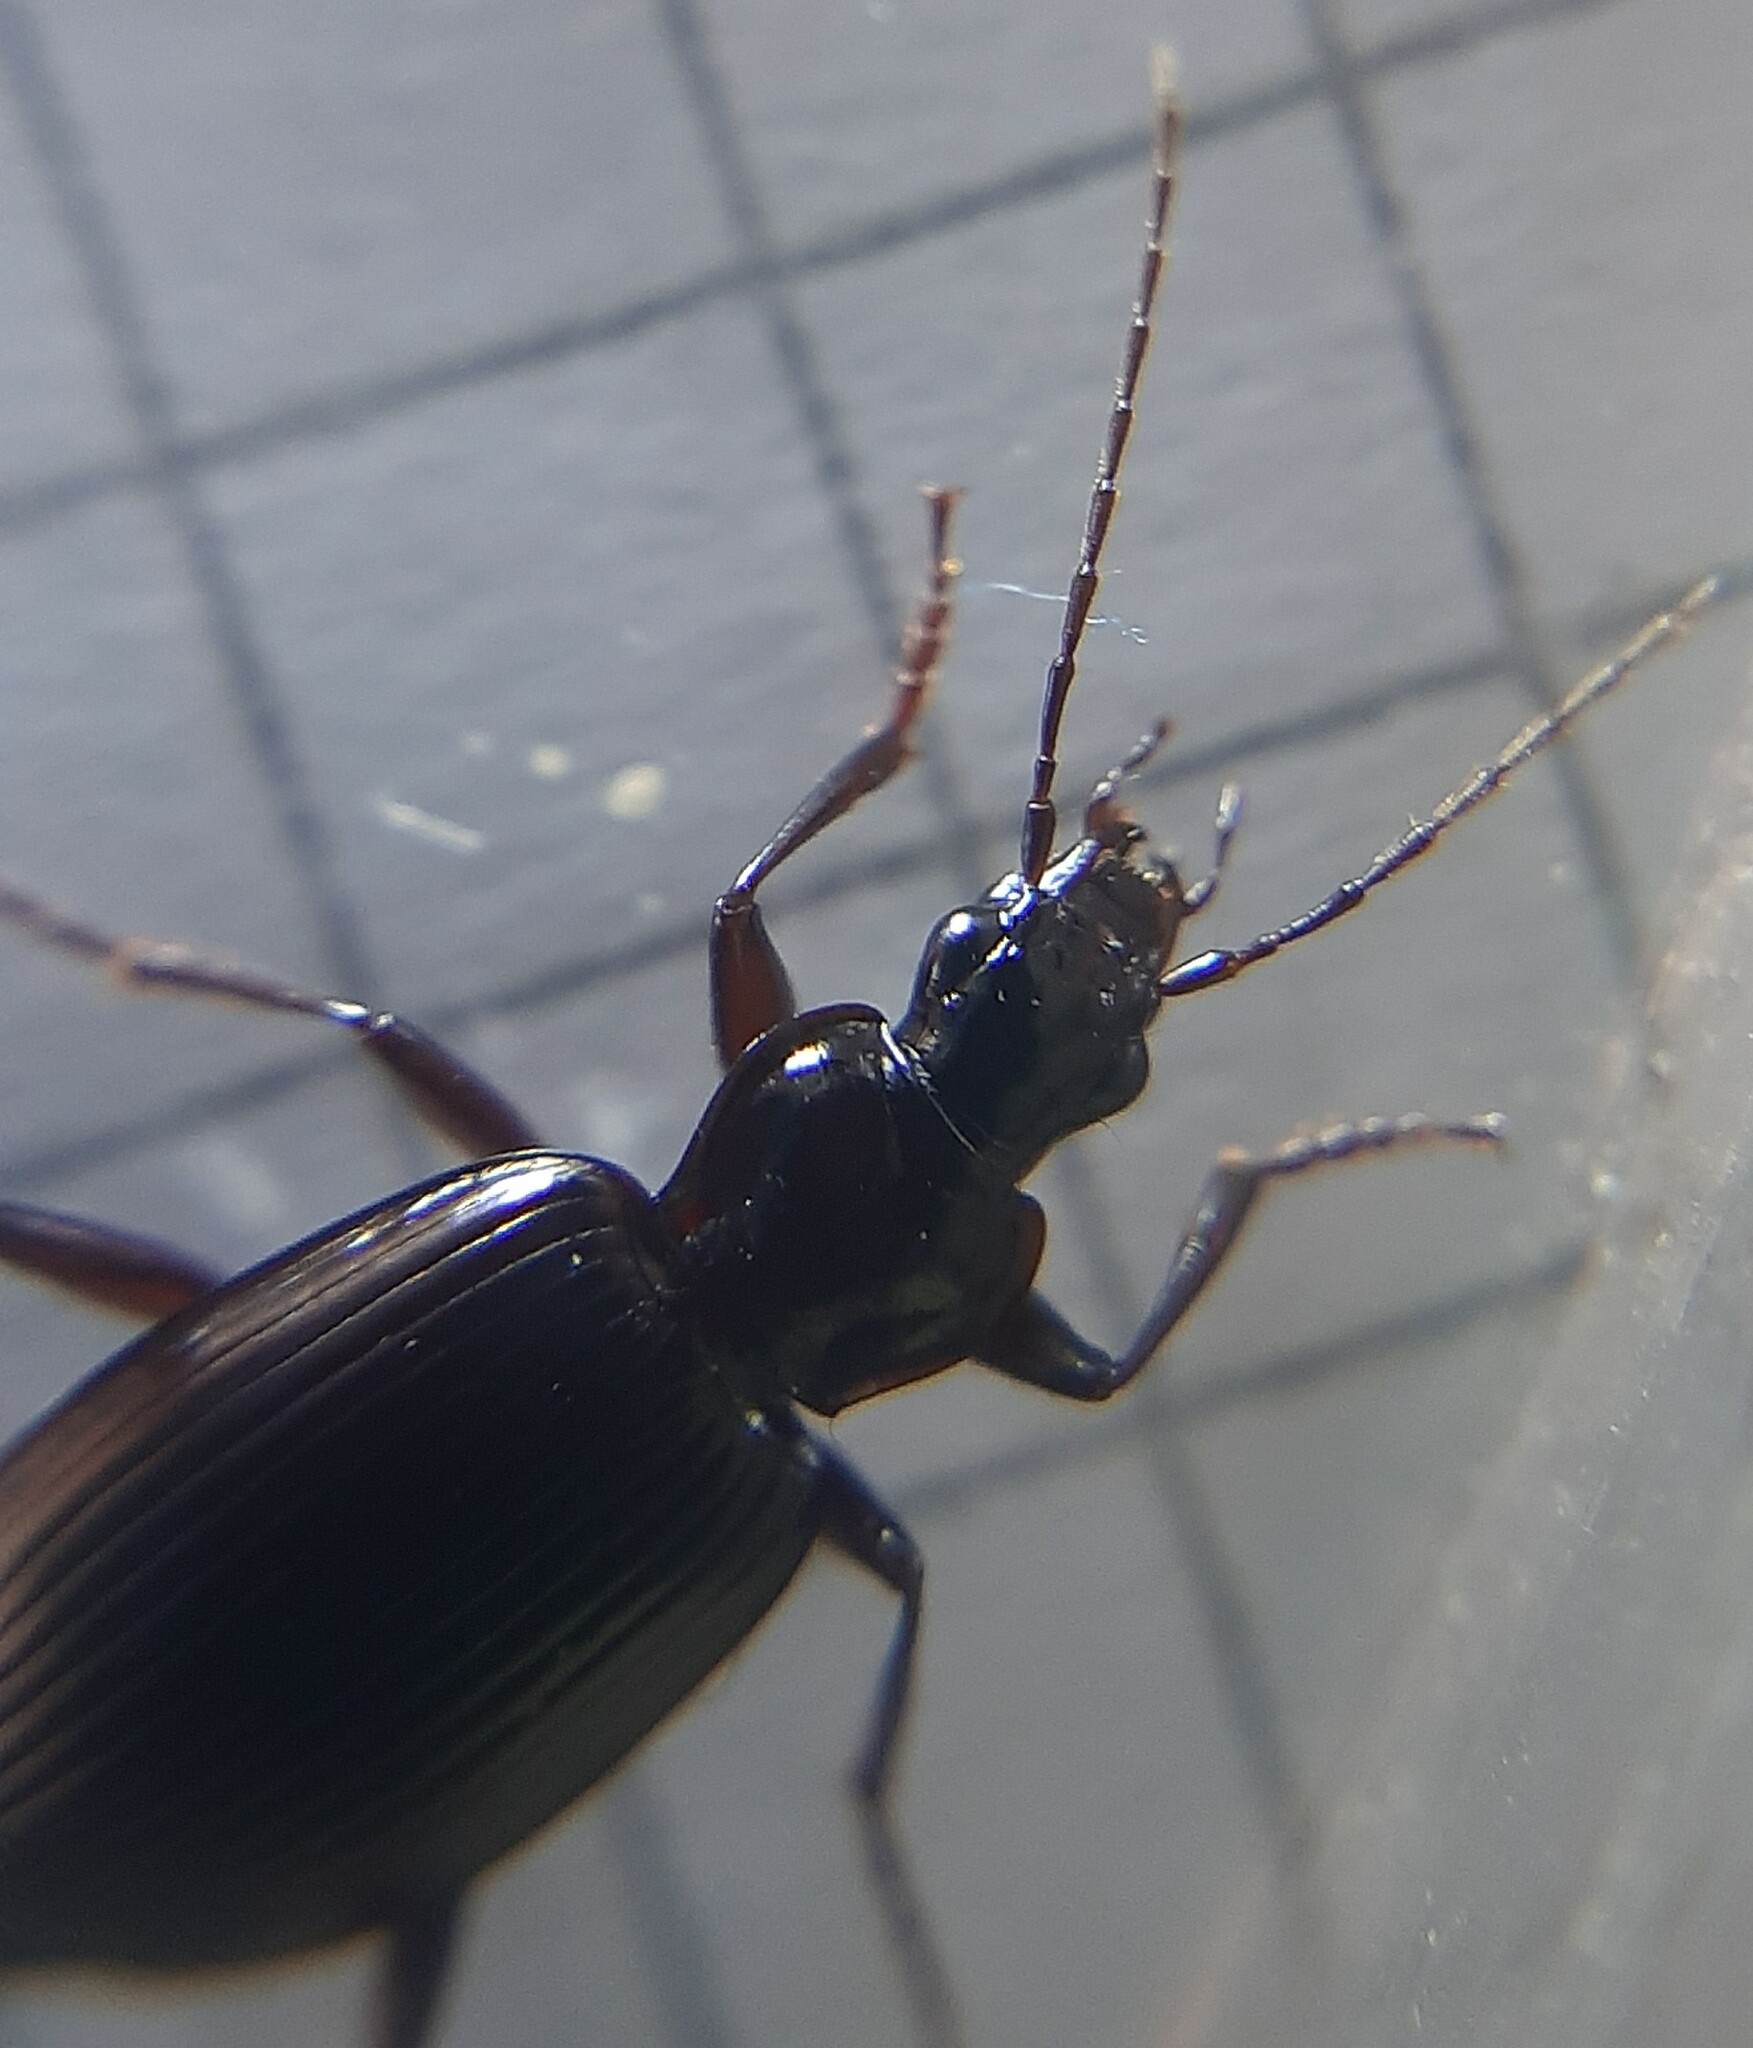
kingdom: Animalia
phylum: Arthropoda
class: Insecta
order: Coleoptera
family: Carabidae
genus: Platynus
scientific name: Platynus assimilis
